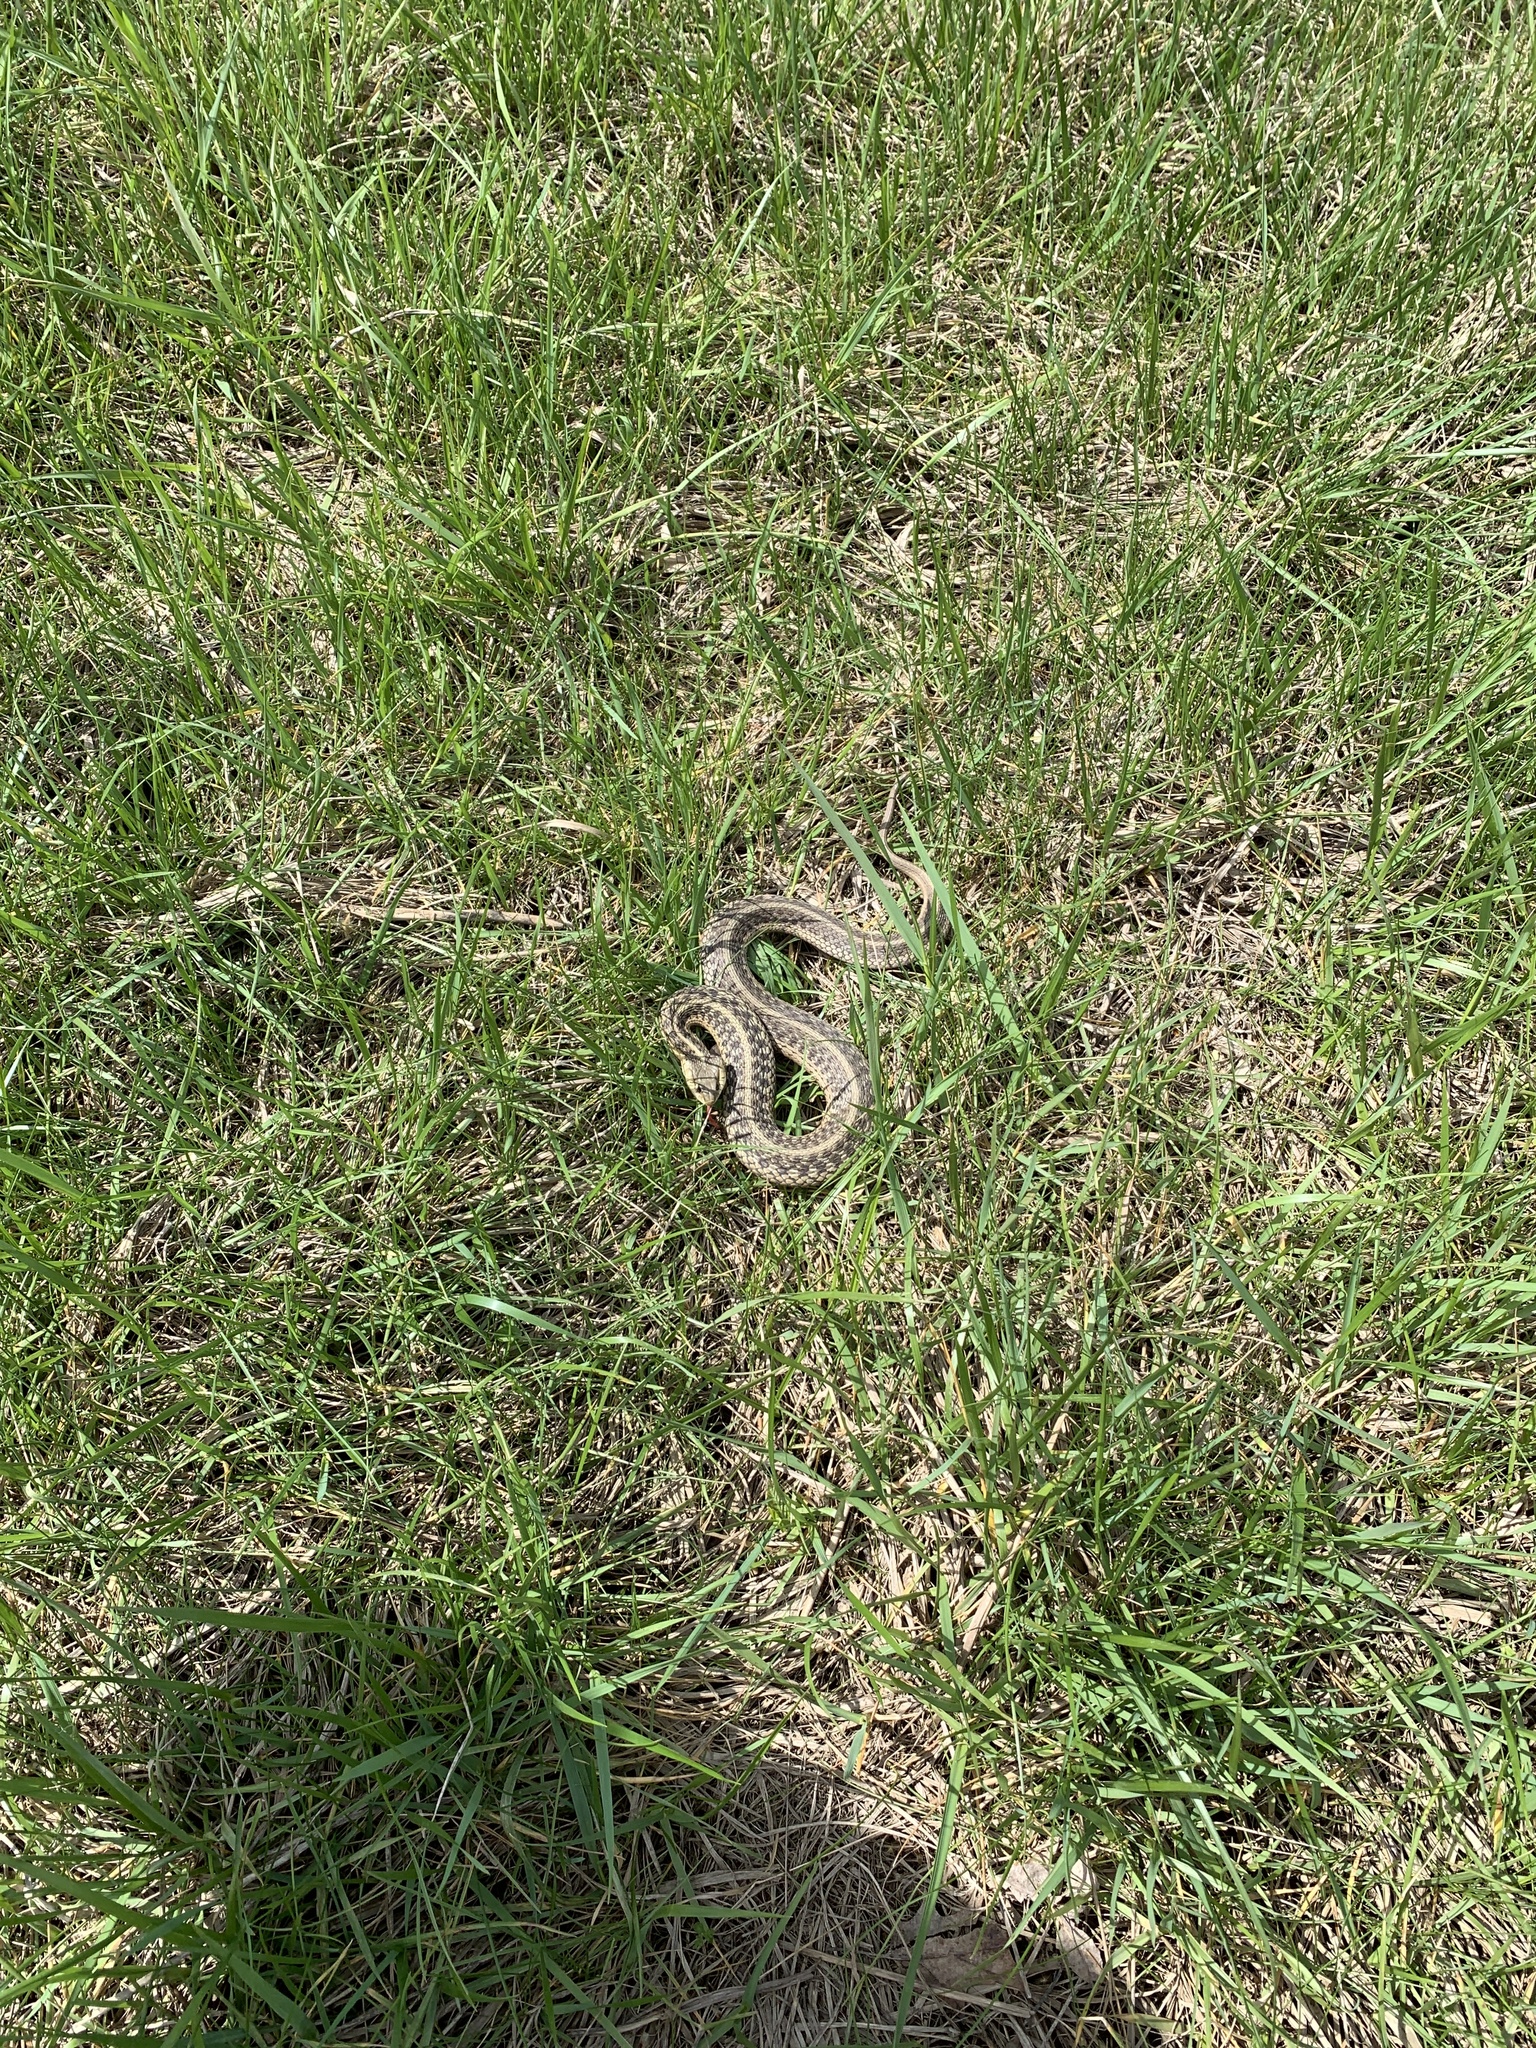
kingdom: Animalia
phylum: Chordata
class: Squamata
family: Colubridae
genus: Thamnophis
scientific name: Thamnophis sirtalis
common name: Common garter snake
